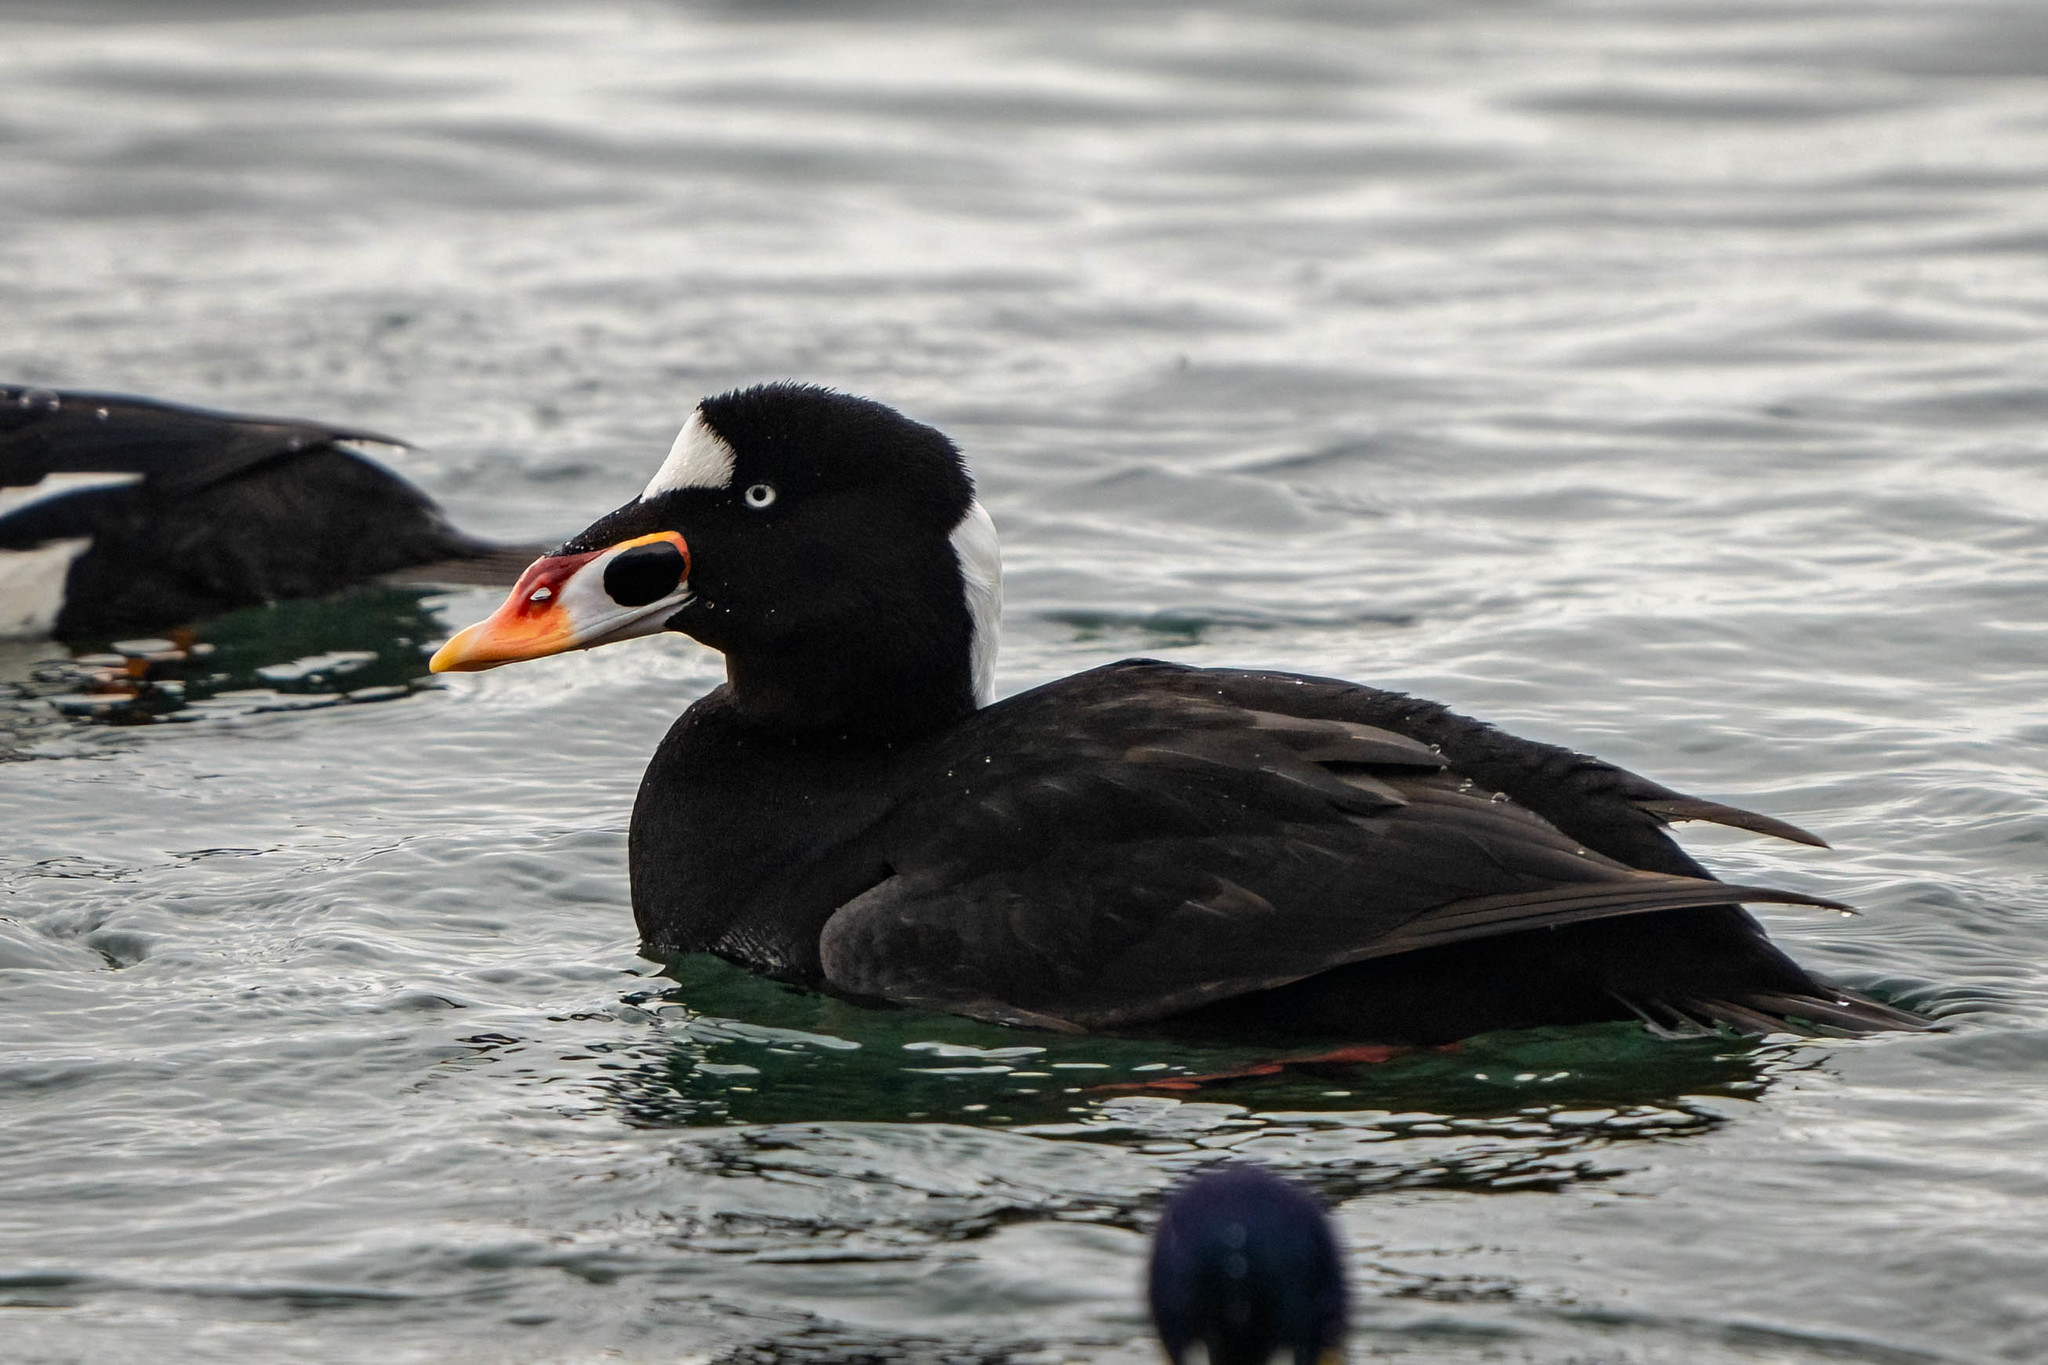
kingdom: Animalia
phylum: Chordata
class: Aves
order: Anseriformes
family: Anatidae
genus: Melanitta
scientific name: Melanitta perspicillata
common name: Surf scoter
